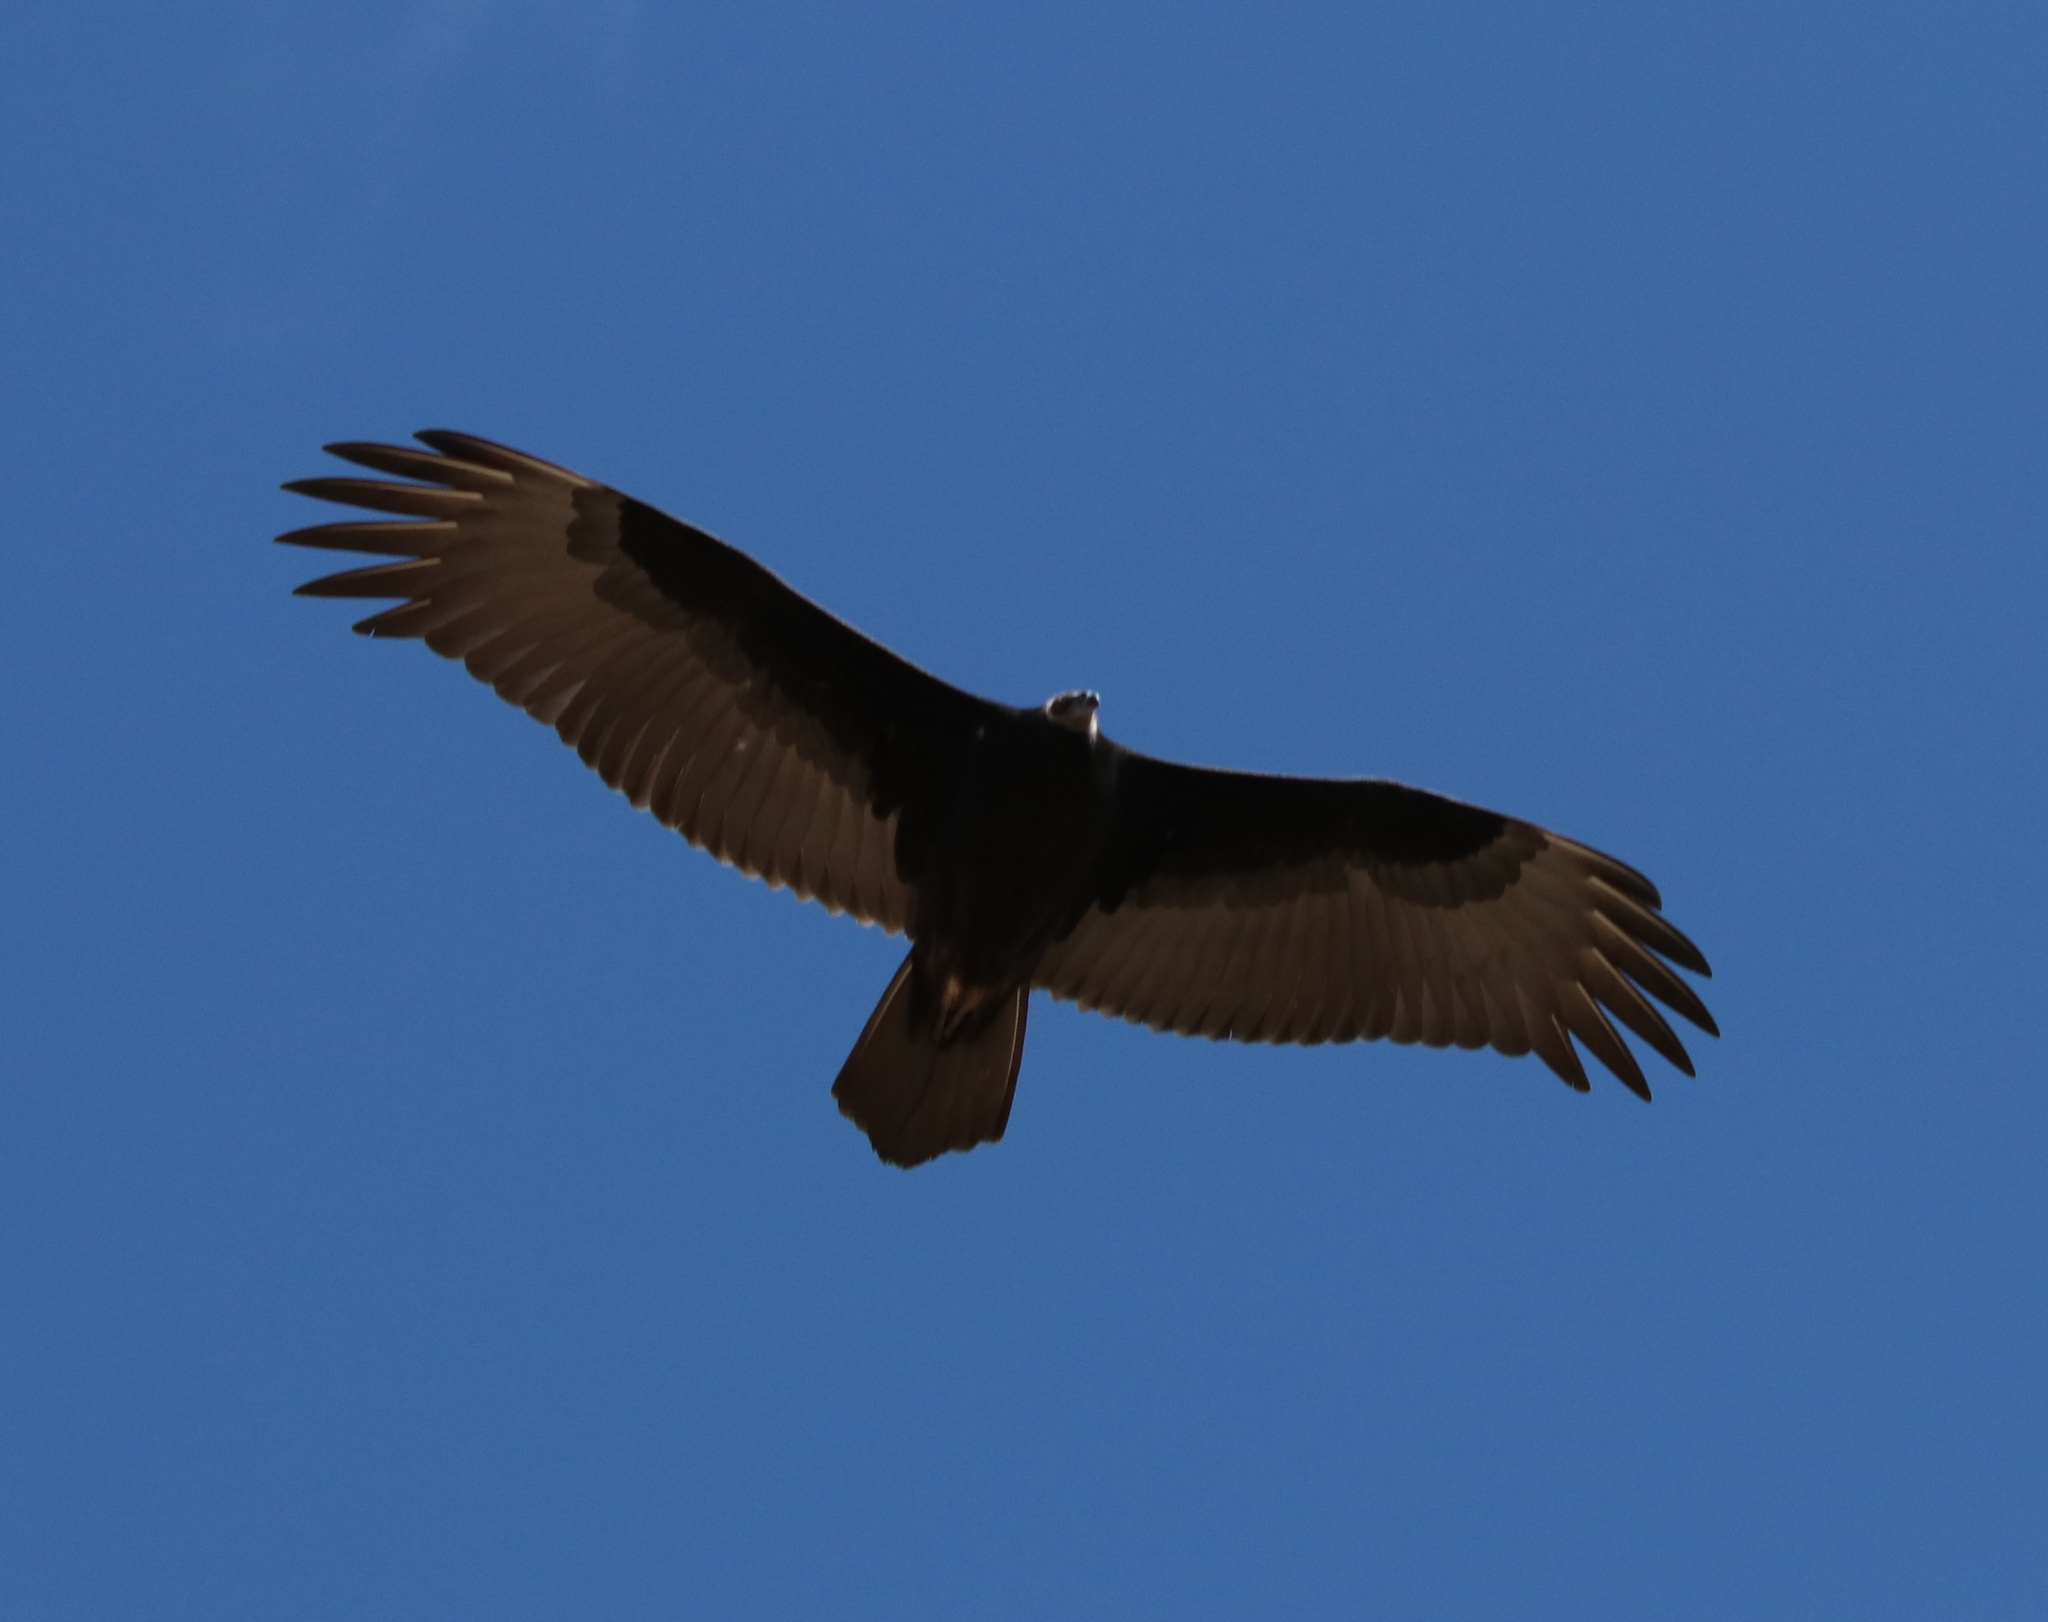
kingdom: Animalia
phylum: Chordata
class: Aves
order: Accipitriformes
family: Cathartidae
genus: Cathartes
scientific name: Cathartes aura
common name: Turkey vulture
